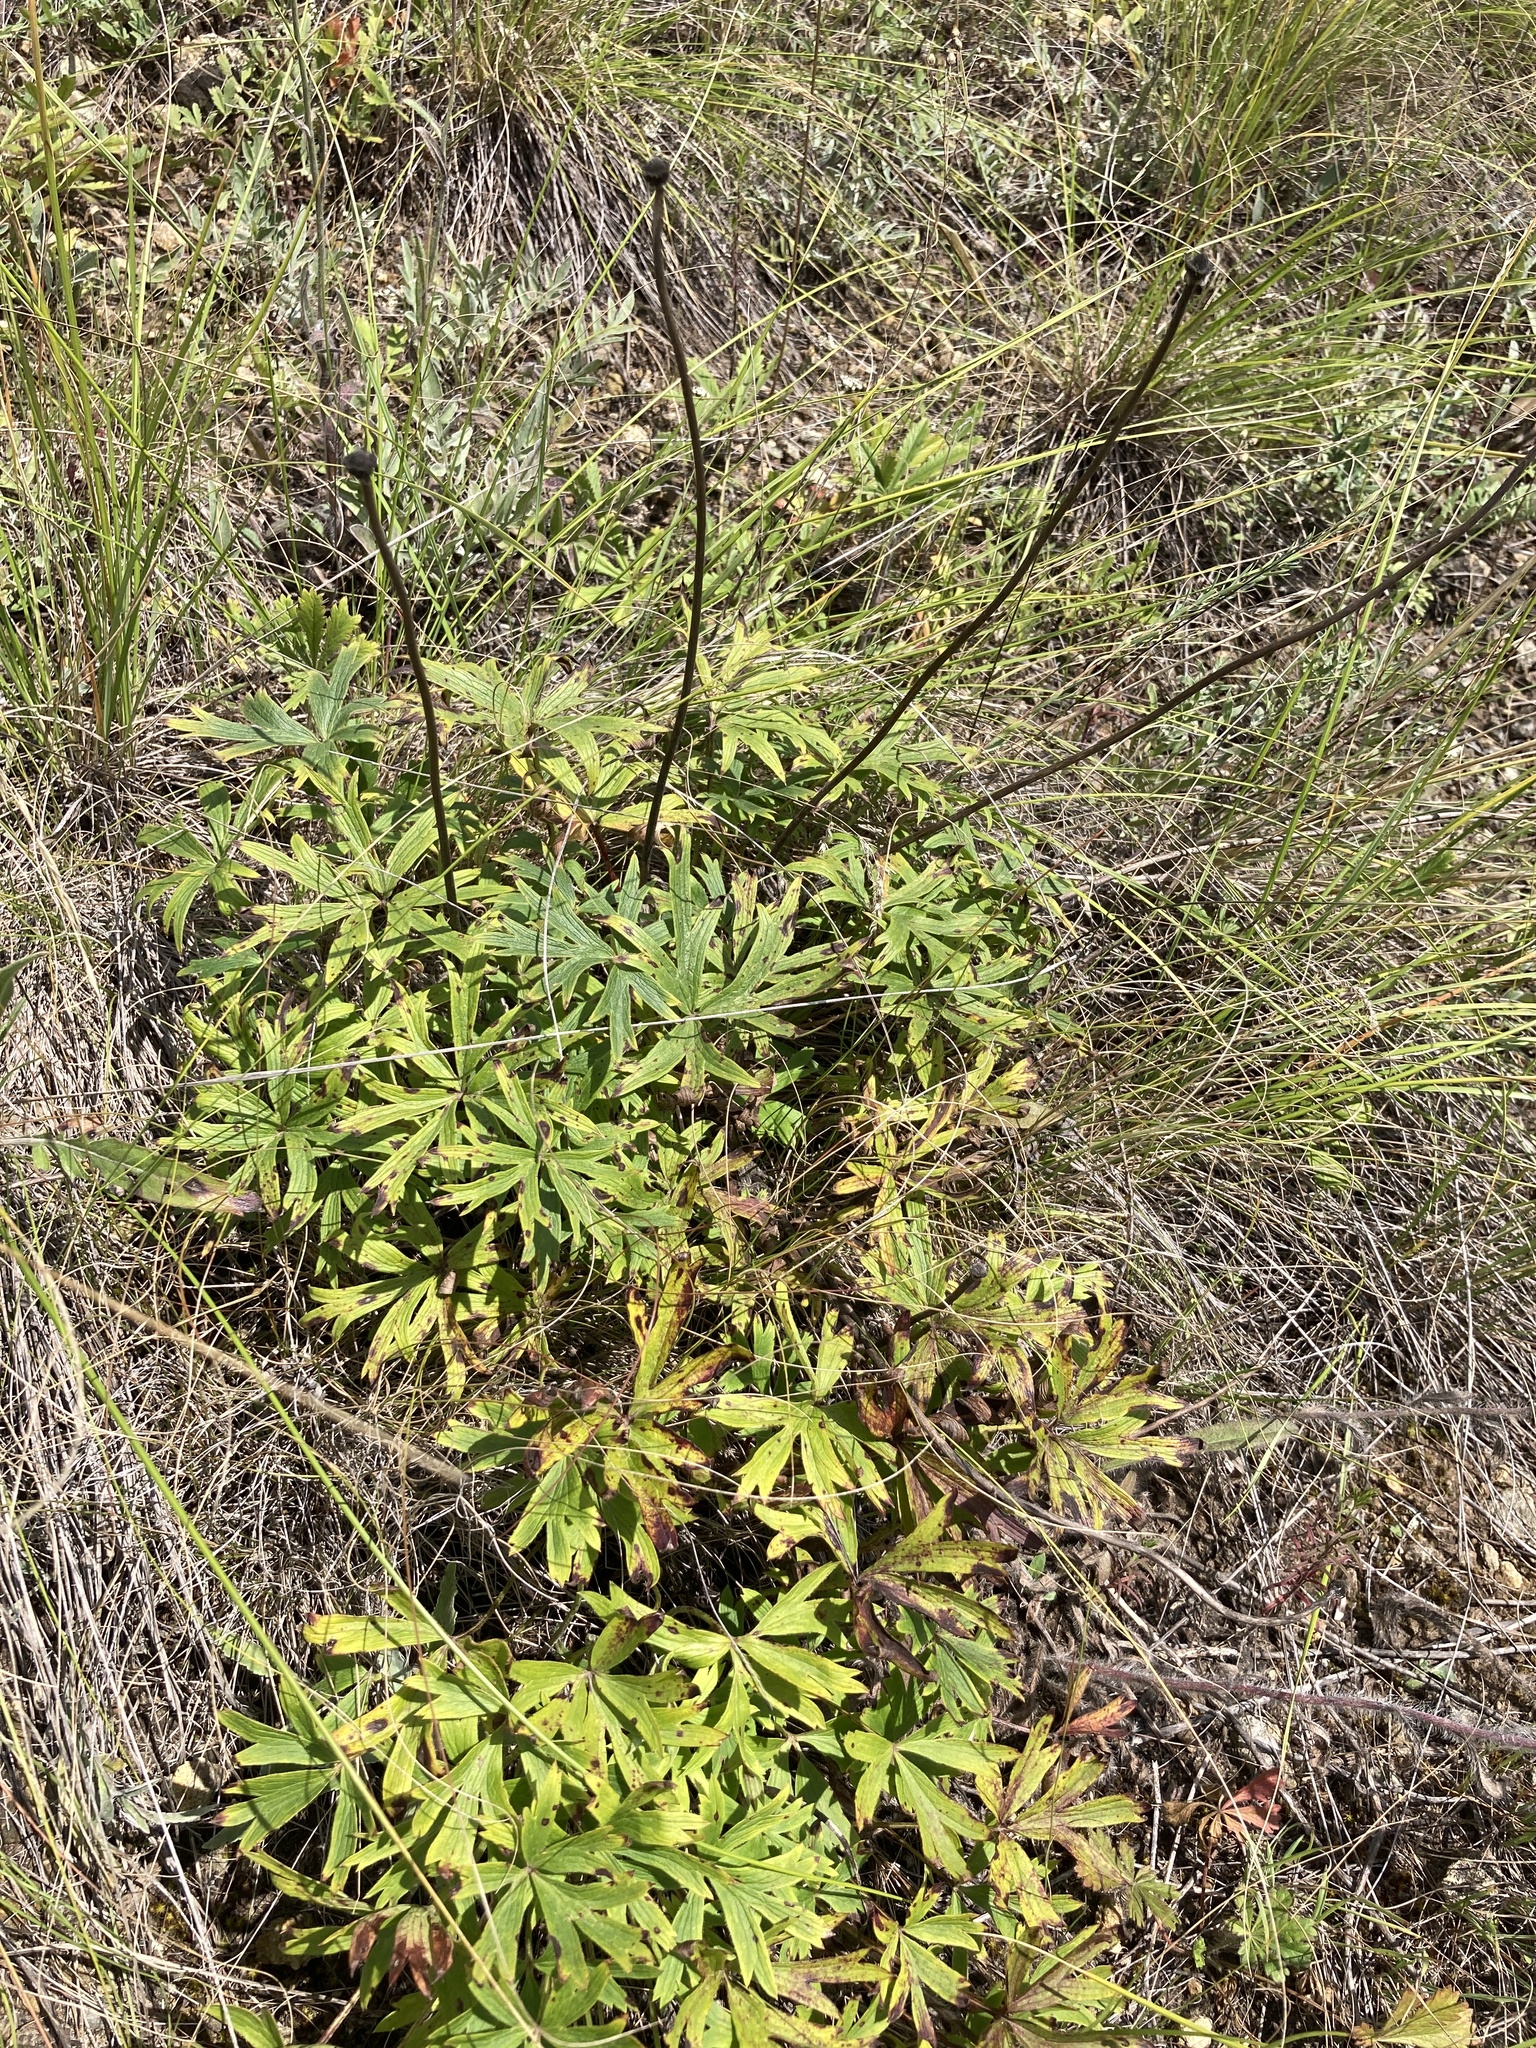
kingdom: Plantae
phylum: Tracheophyta
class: Magnoliopsida
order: Ranunculales
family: Ranunculaceae
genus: Pulsatilla
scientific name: Pulsatilla patens
